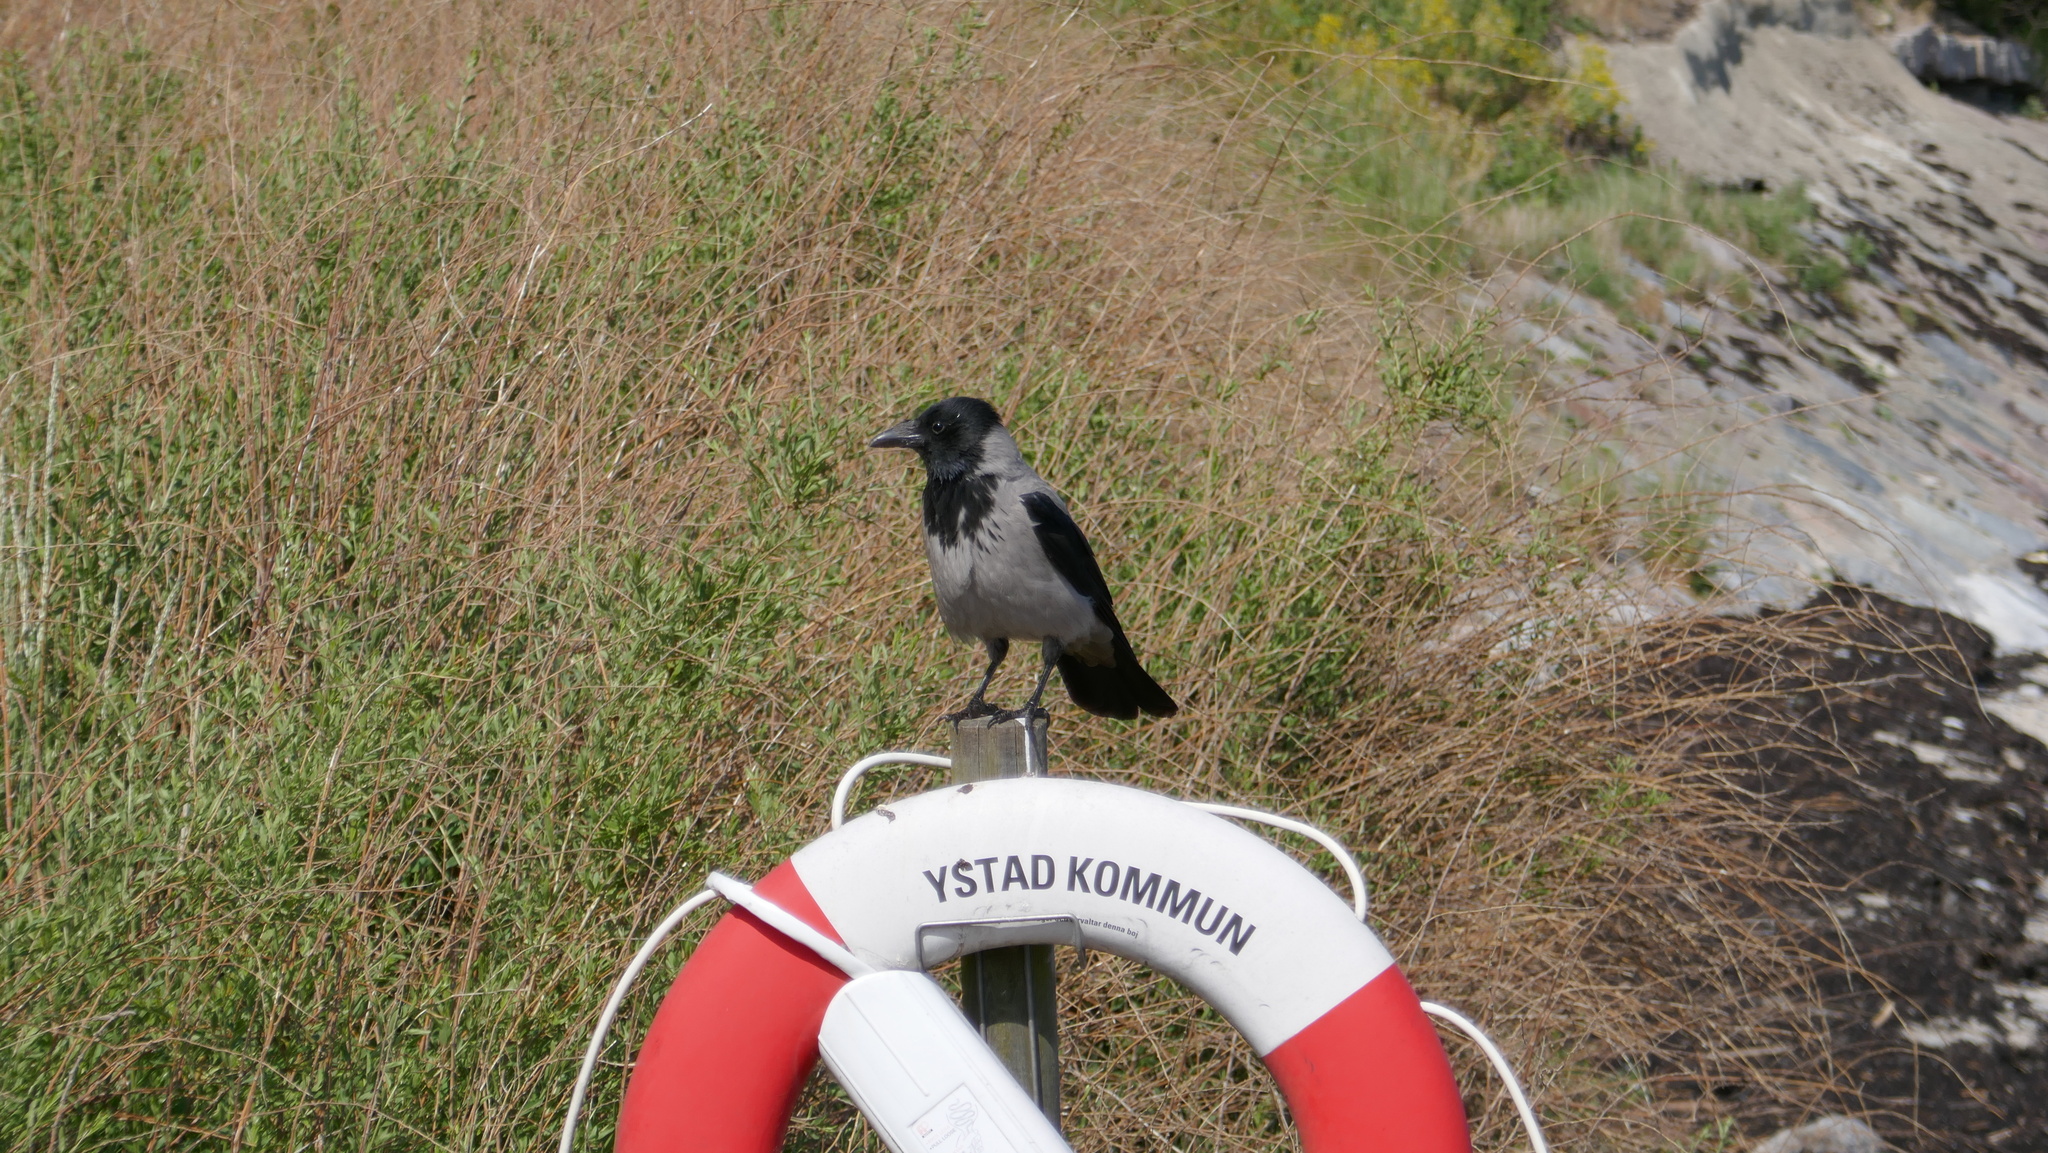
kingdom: Animalia
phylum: Chordata
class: Aves
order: Passeriformes
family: Corvidae
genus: Corvus
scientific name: Corvus cornix
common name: Hooded crow
